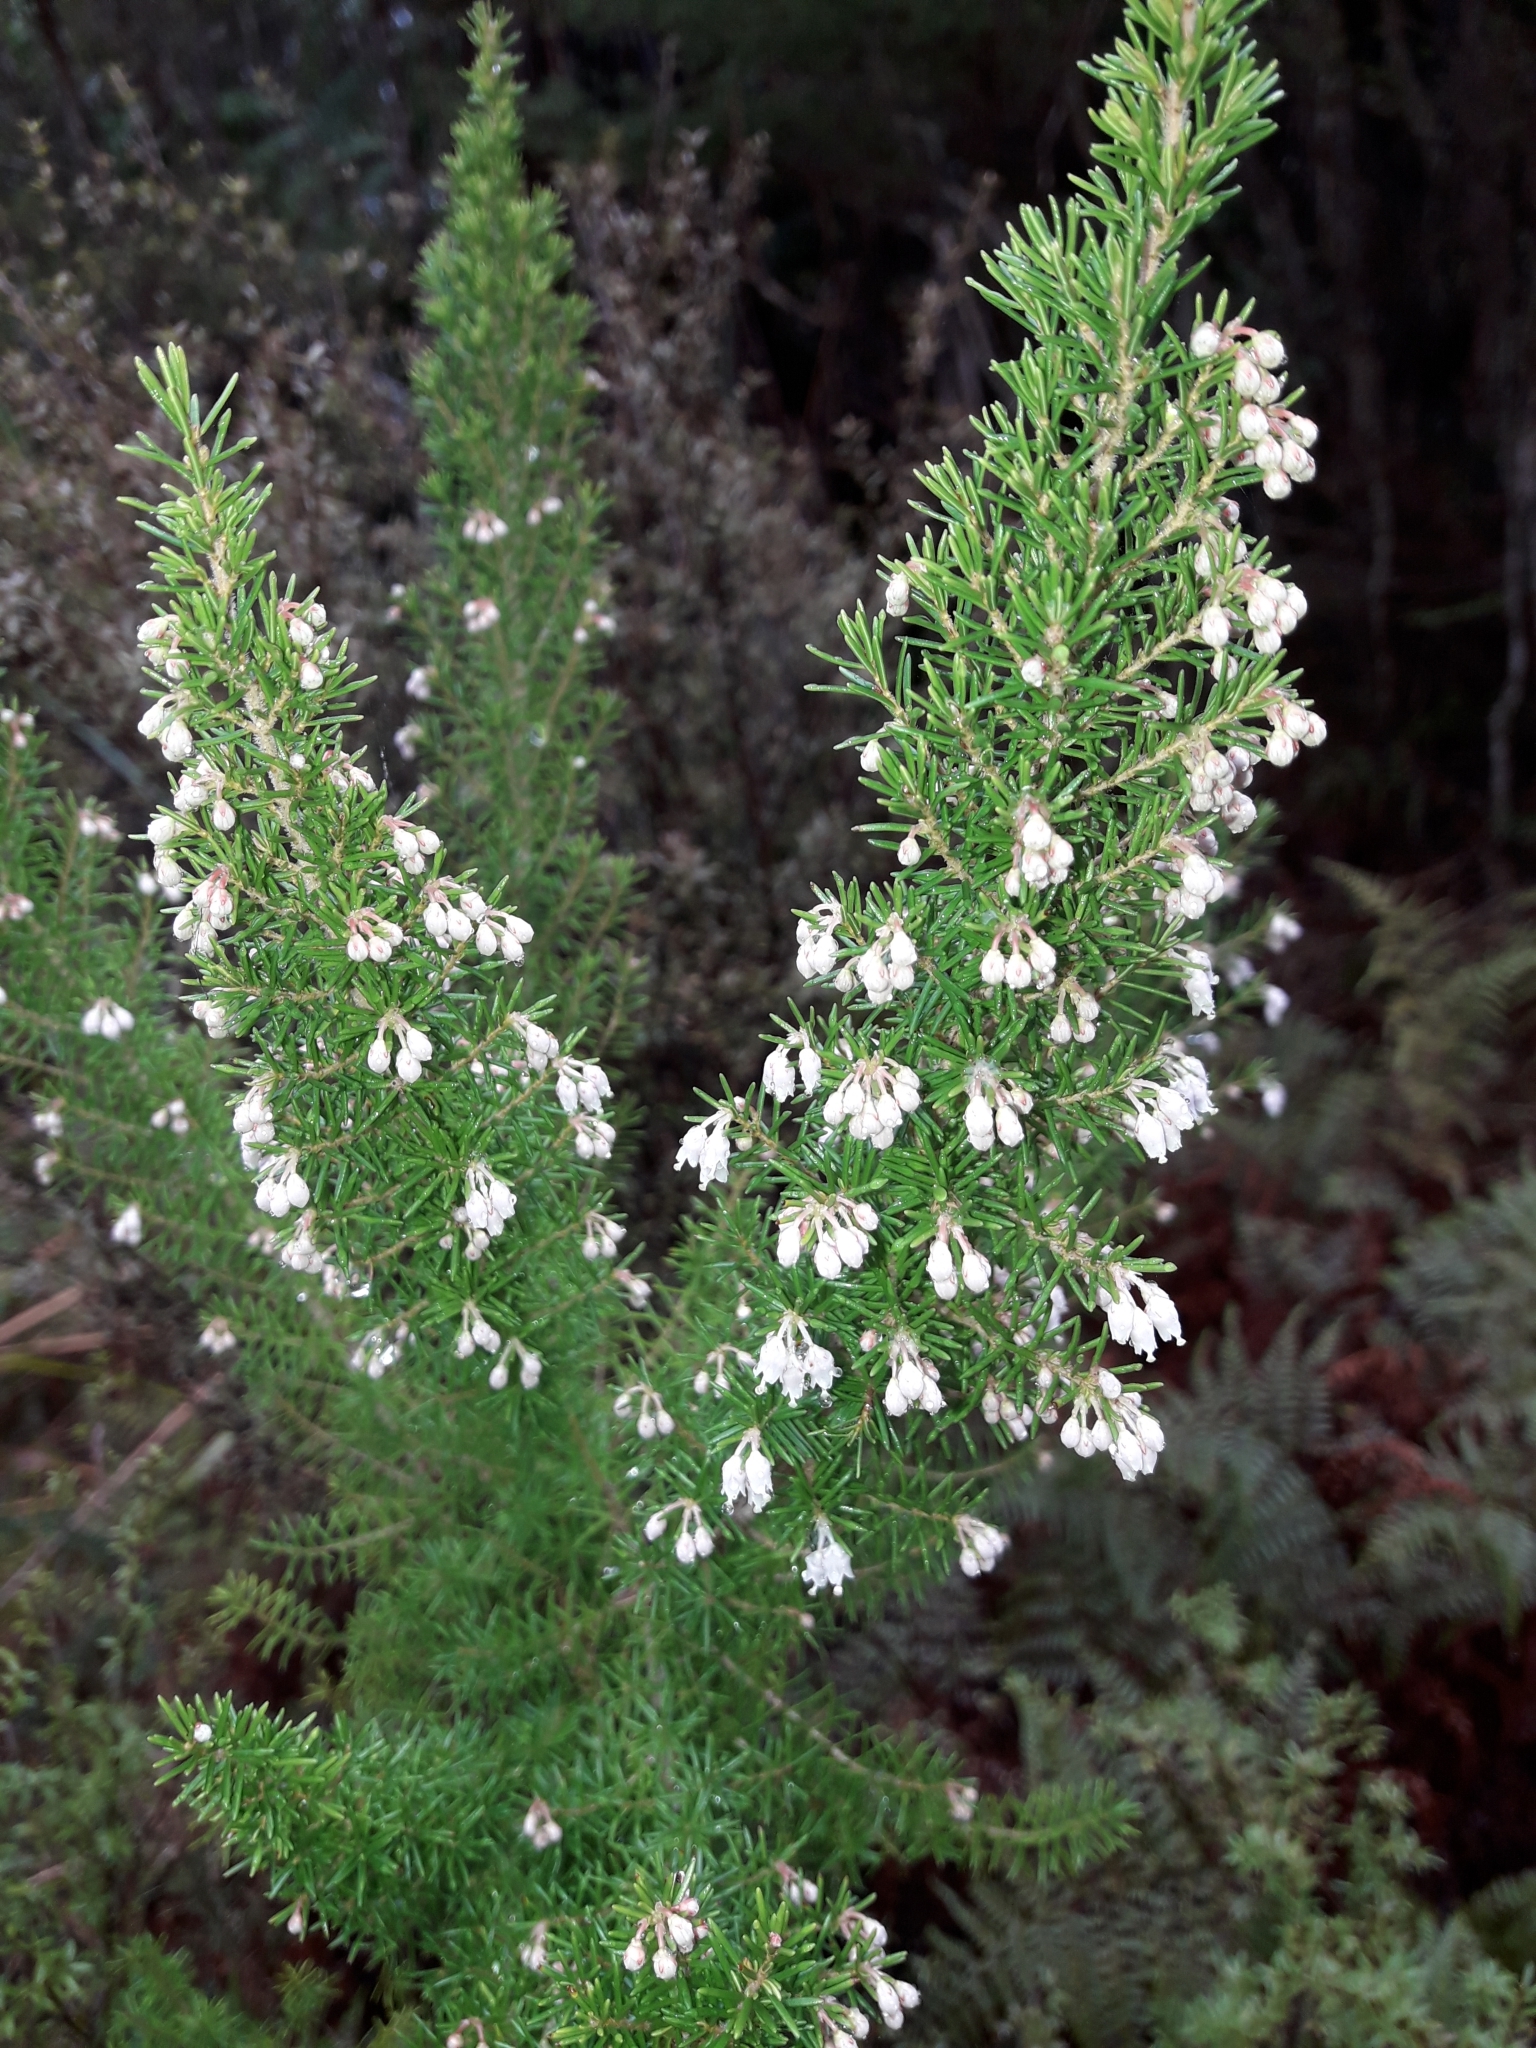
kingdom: Plantae
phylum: Tracheophyta
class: Magnoliopsida
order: Ericales
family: Ericaceae
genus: Erica
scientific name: Erica arborea
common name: Tree heath
